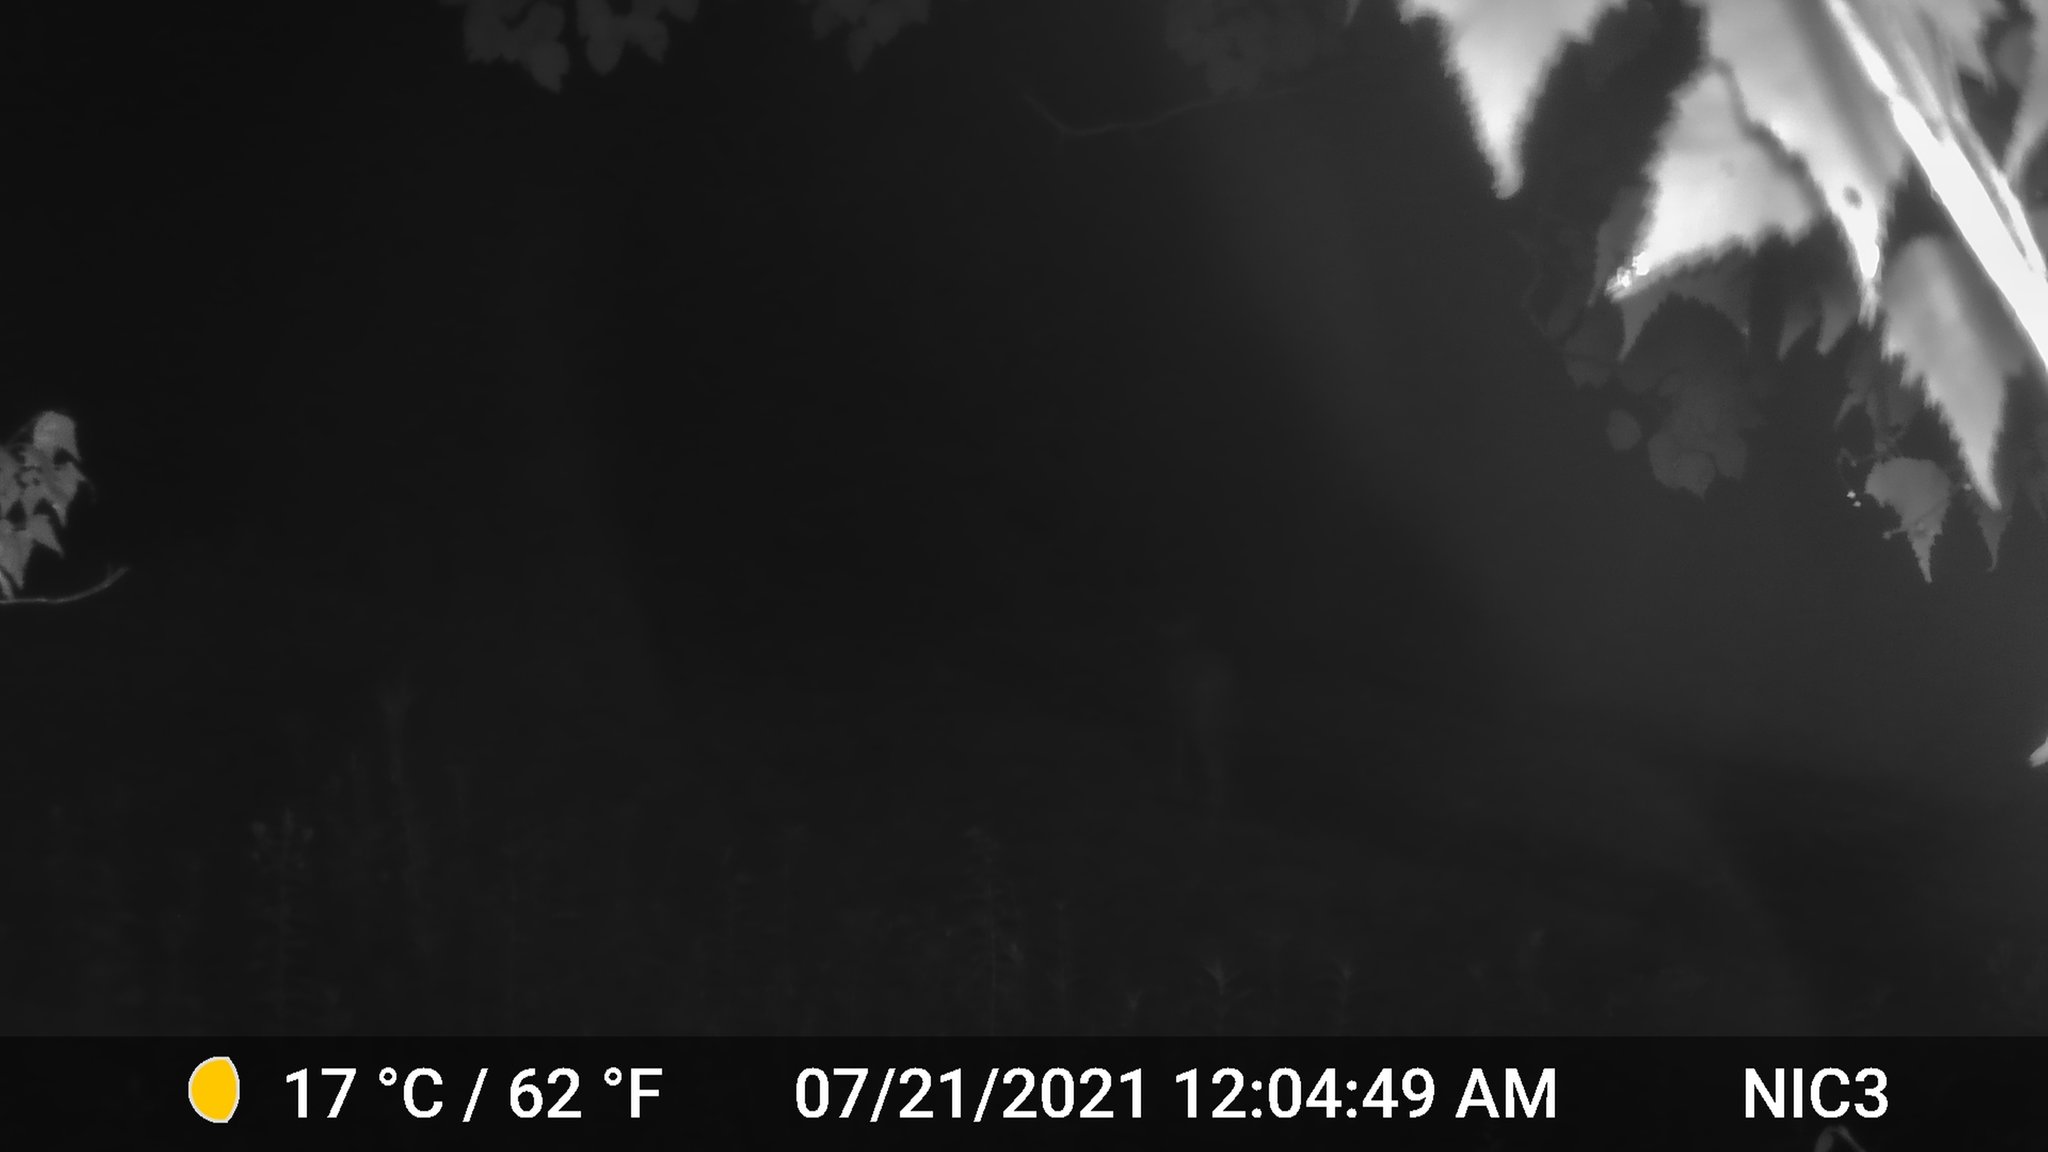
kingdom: Animalia
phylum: Chordata
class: Mammalia
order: Artiodactyla
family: Cervidae
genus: Odocoileus
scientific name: Odocoileus virginianus
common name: White-tailed deer
